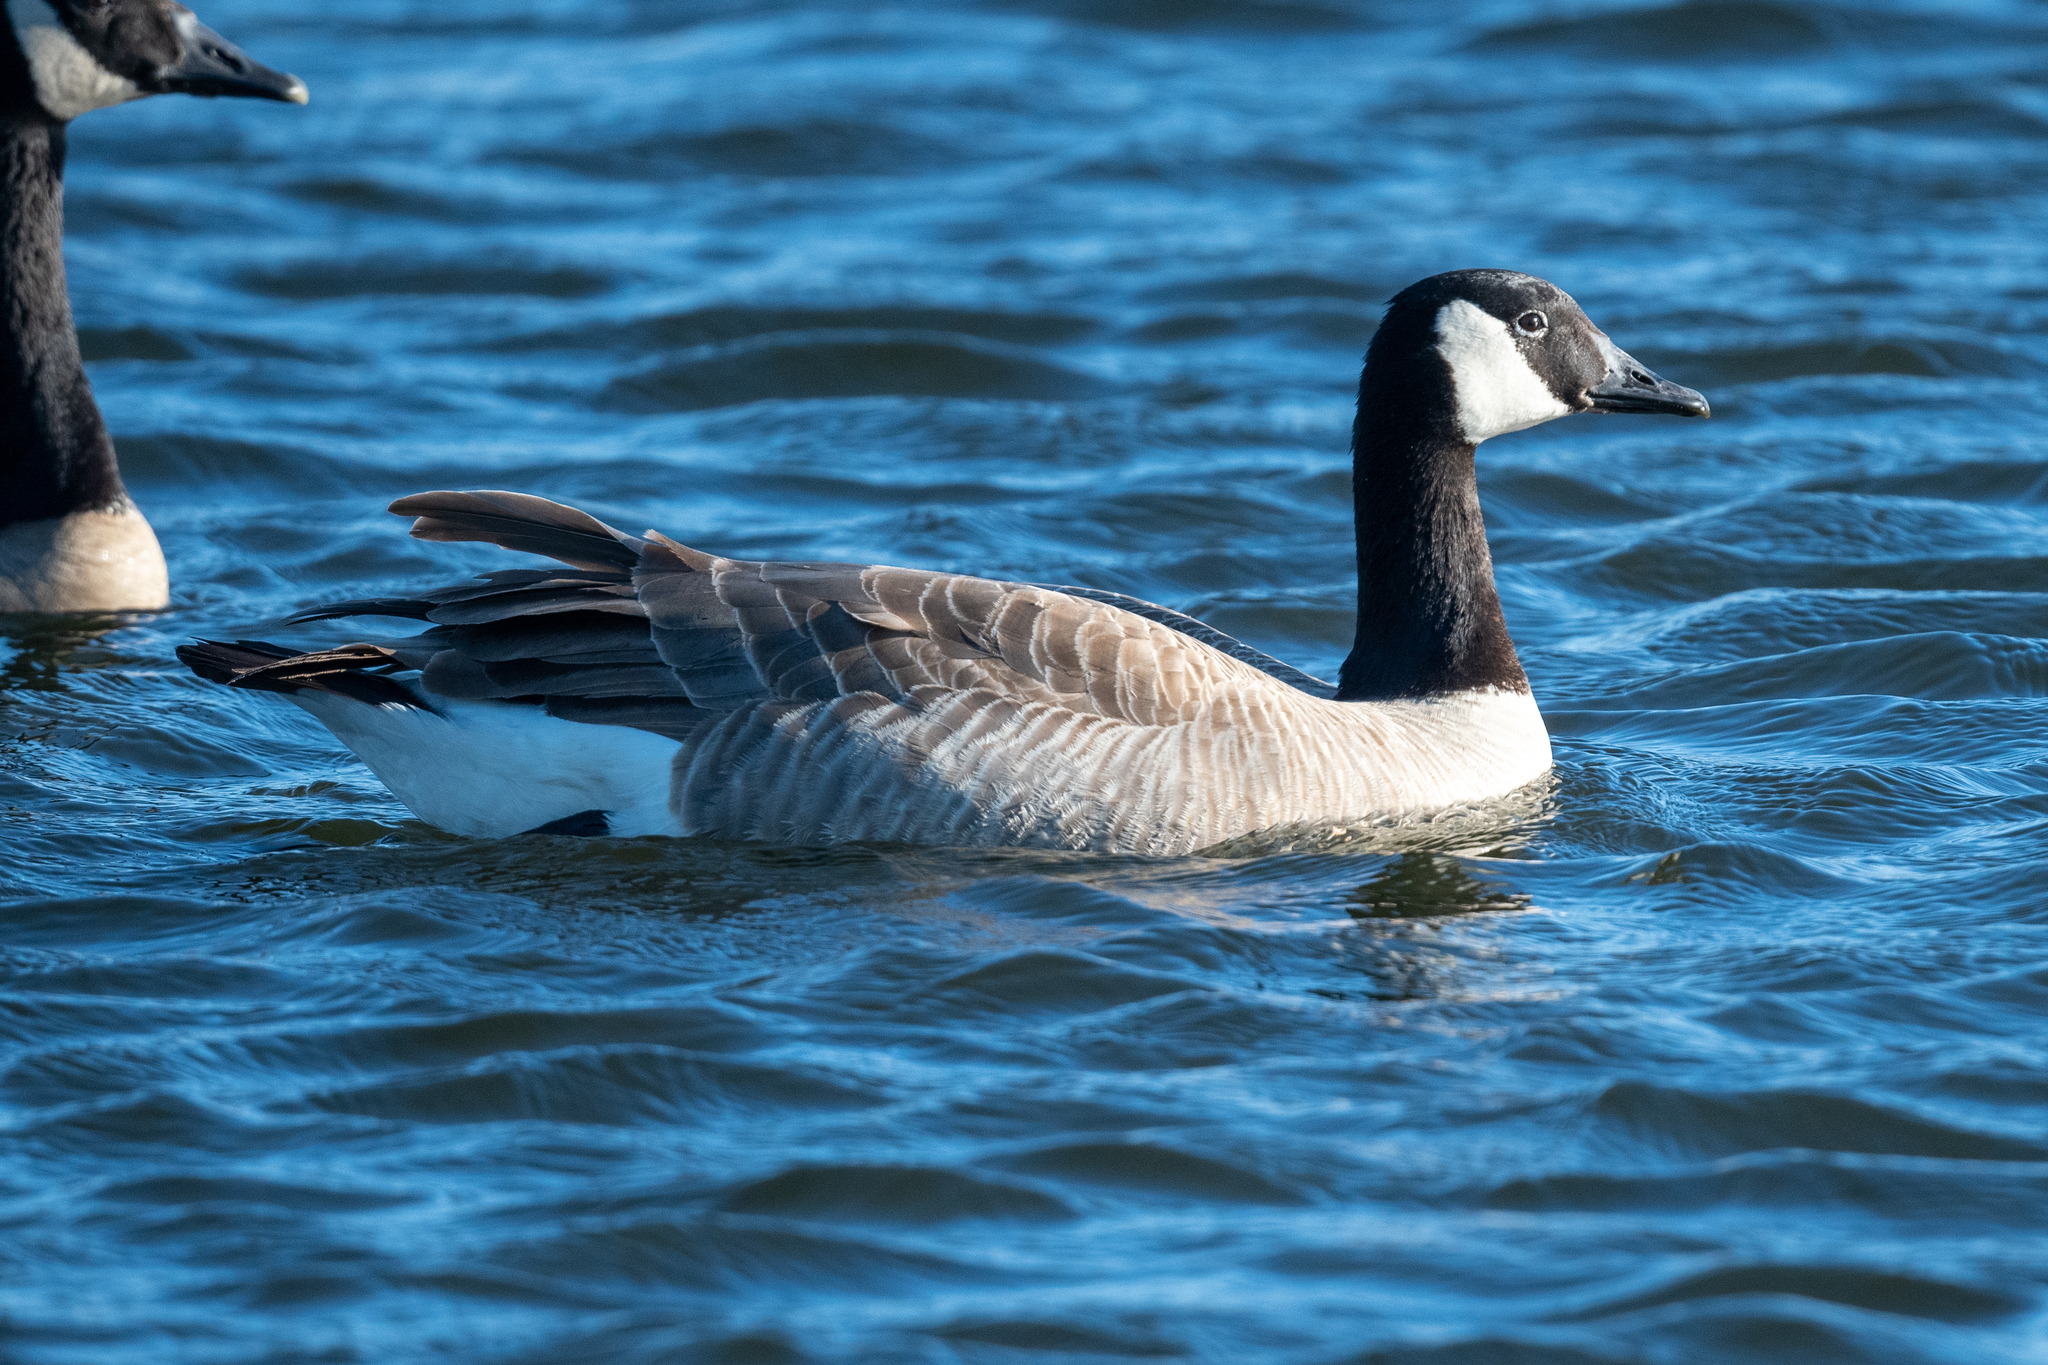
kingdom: Animalia
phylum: Chordata
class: Aves
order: Anseriformes
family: Anatidae
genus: Branta
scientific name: Branta canadensis
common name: Canada goose
